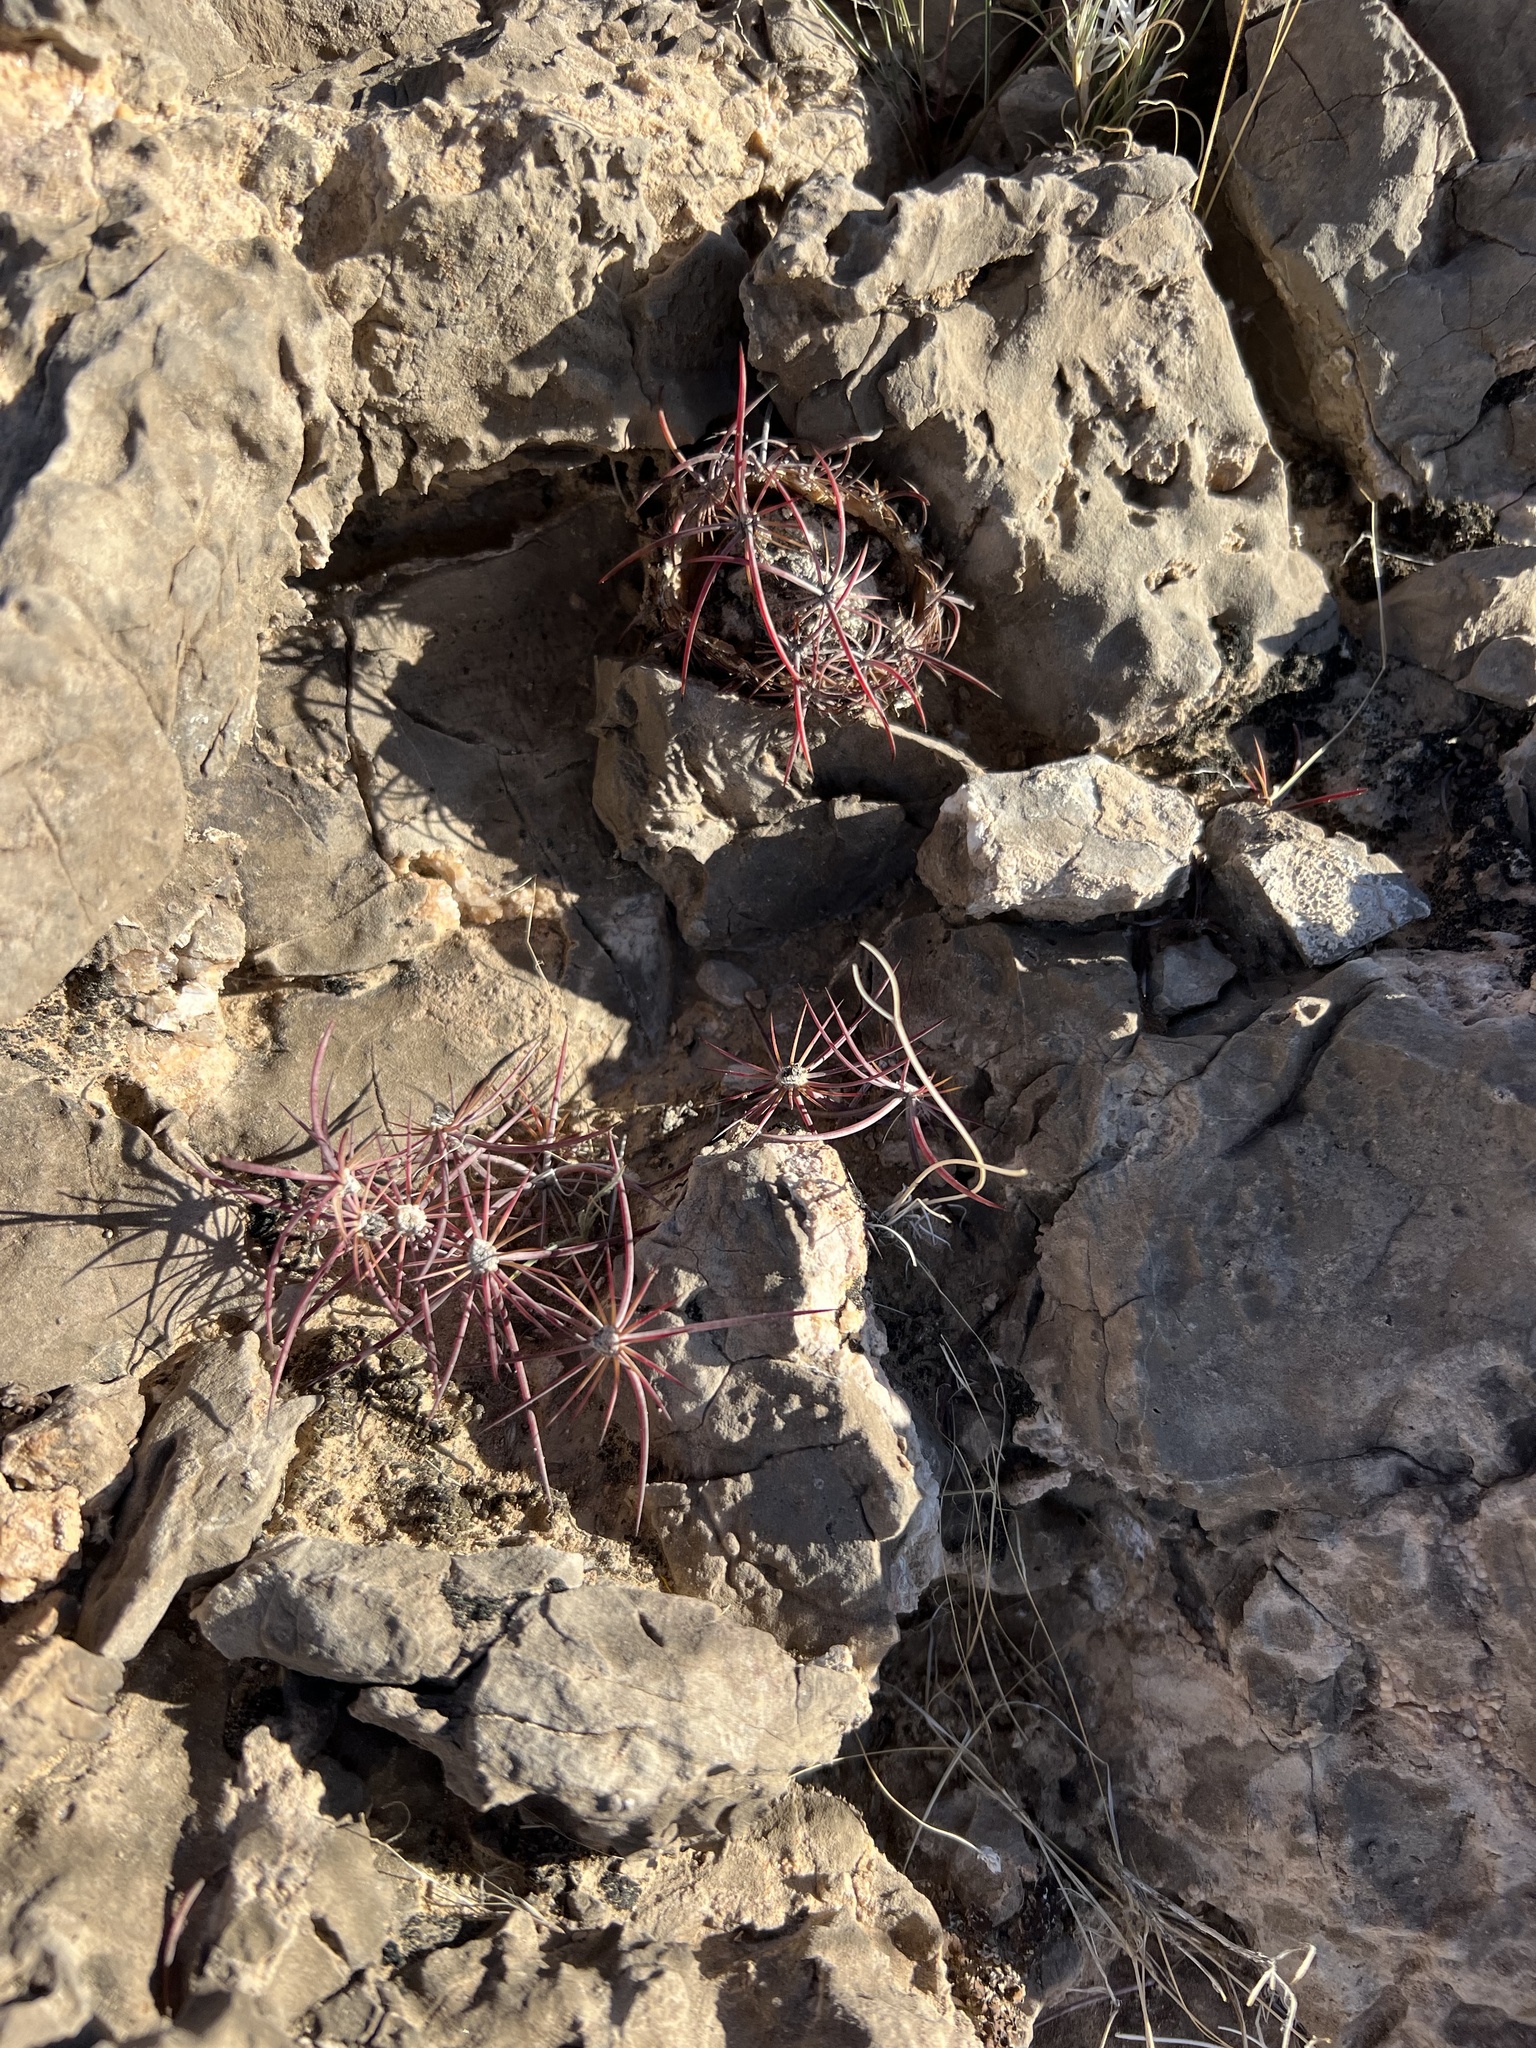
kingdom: Plantae
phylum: Tracheophyta
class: Magnoliopsida
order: Caryophyllales
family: Cactaceae
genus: Echinocactus
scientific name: Echinocactus polycephalus
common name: Cottontop cactus
